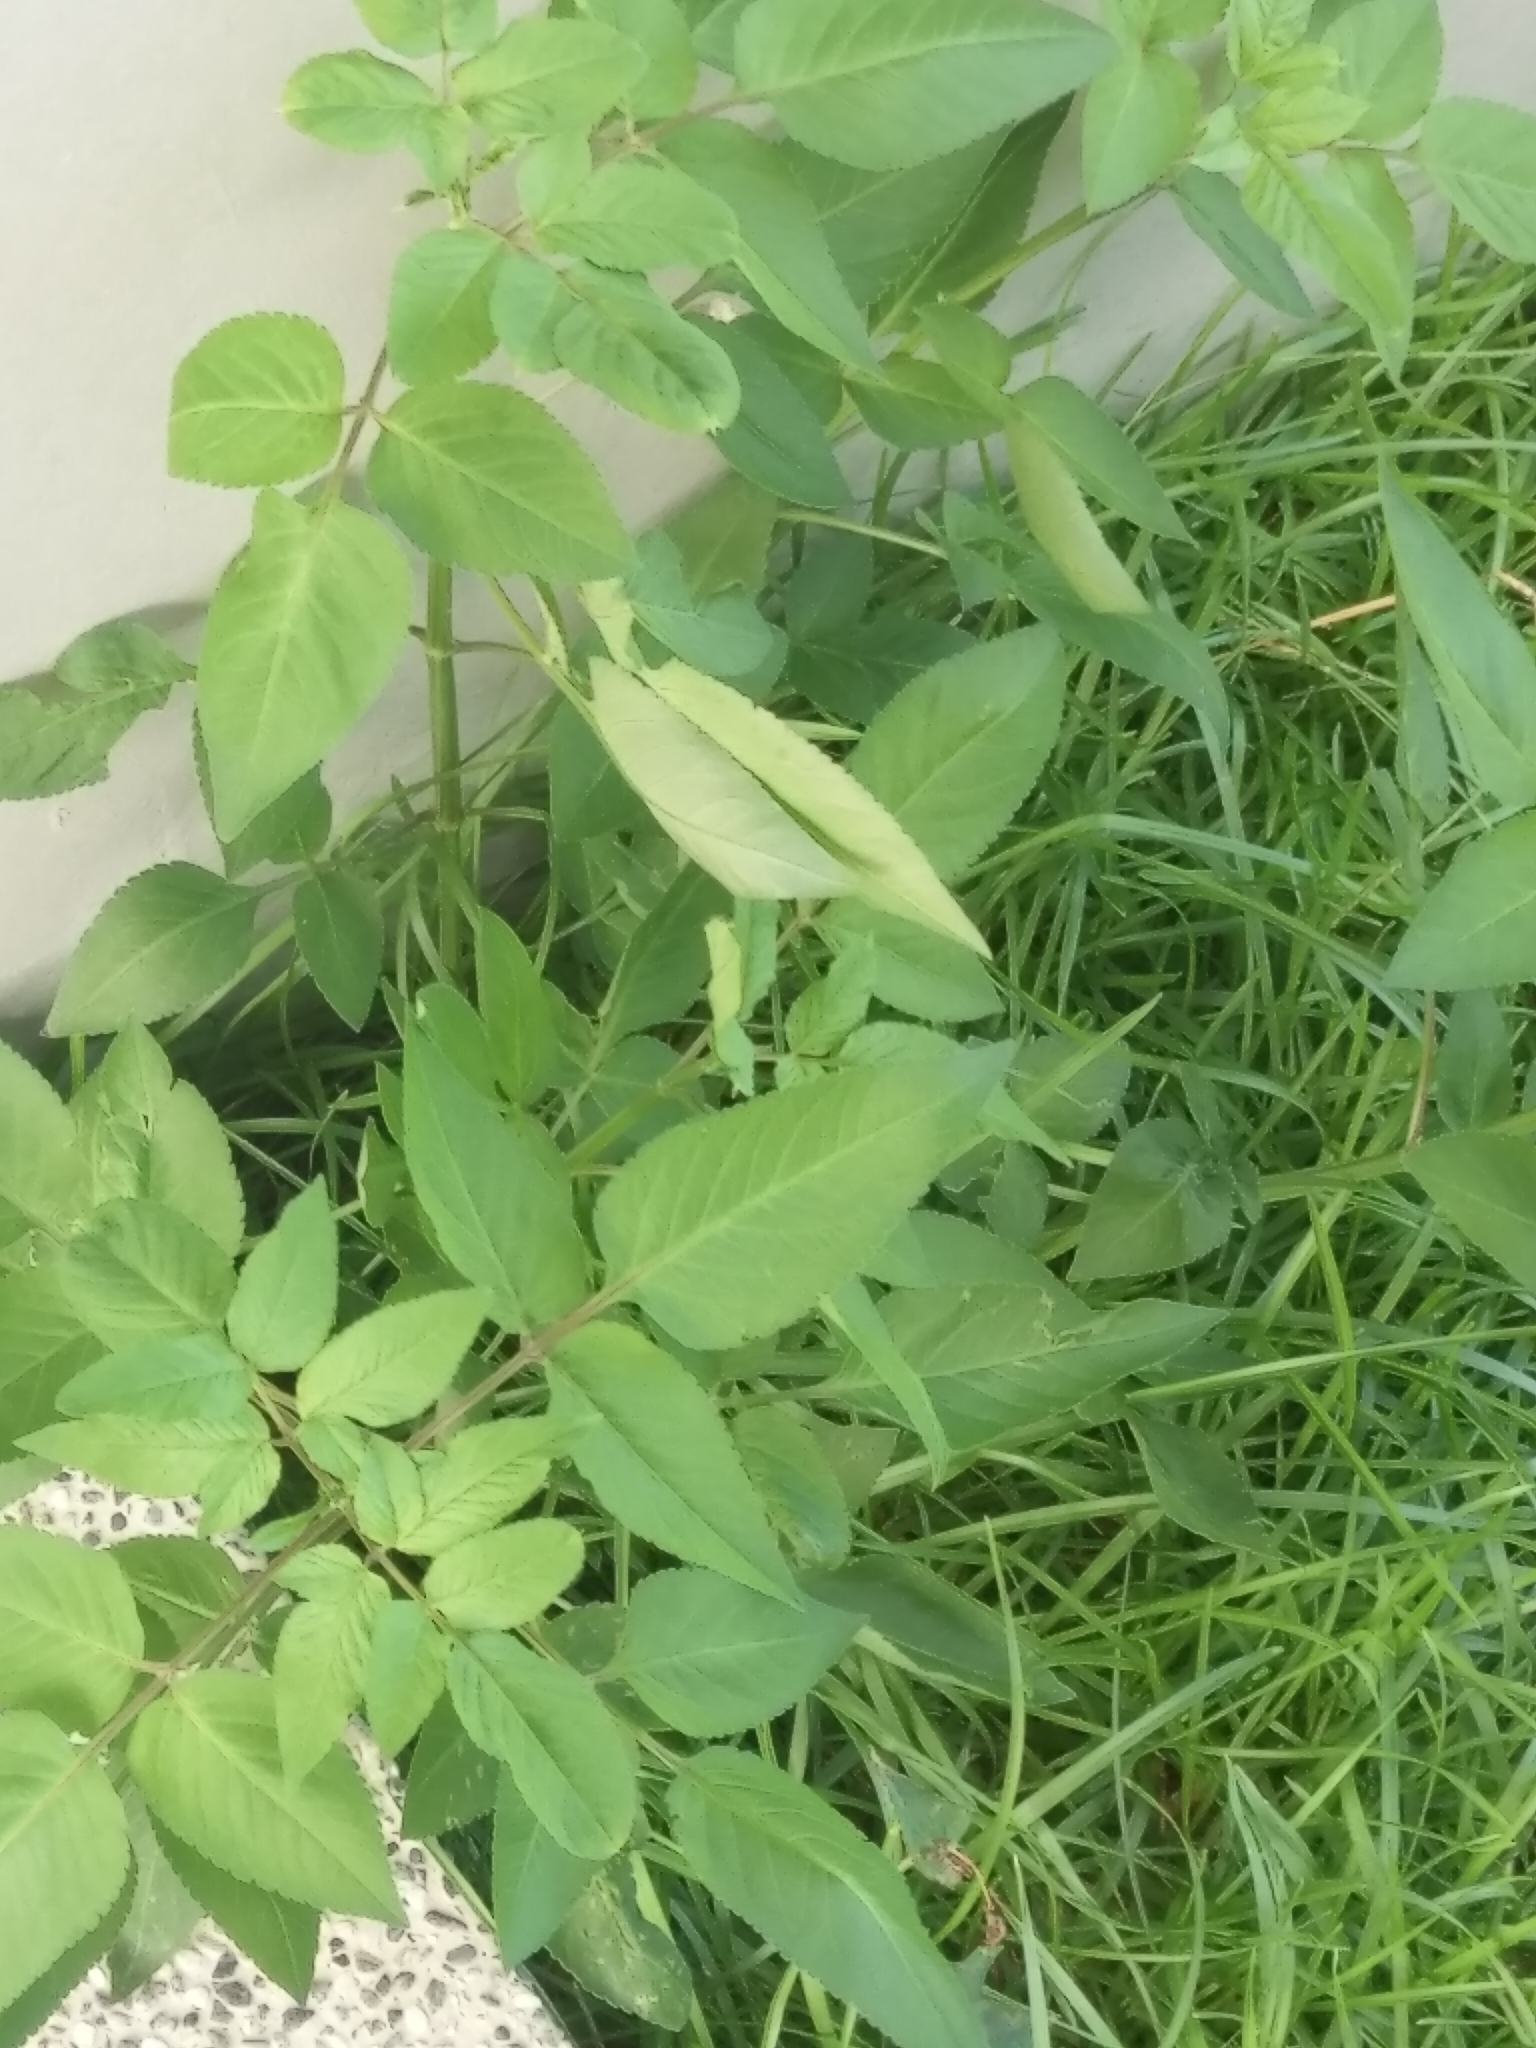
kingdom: Plantae
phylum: Tracheophyta
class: Magnoliopsida
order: Asterales
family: Asteraceae
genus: Bidens
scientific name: Bidens alba
